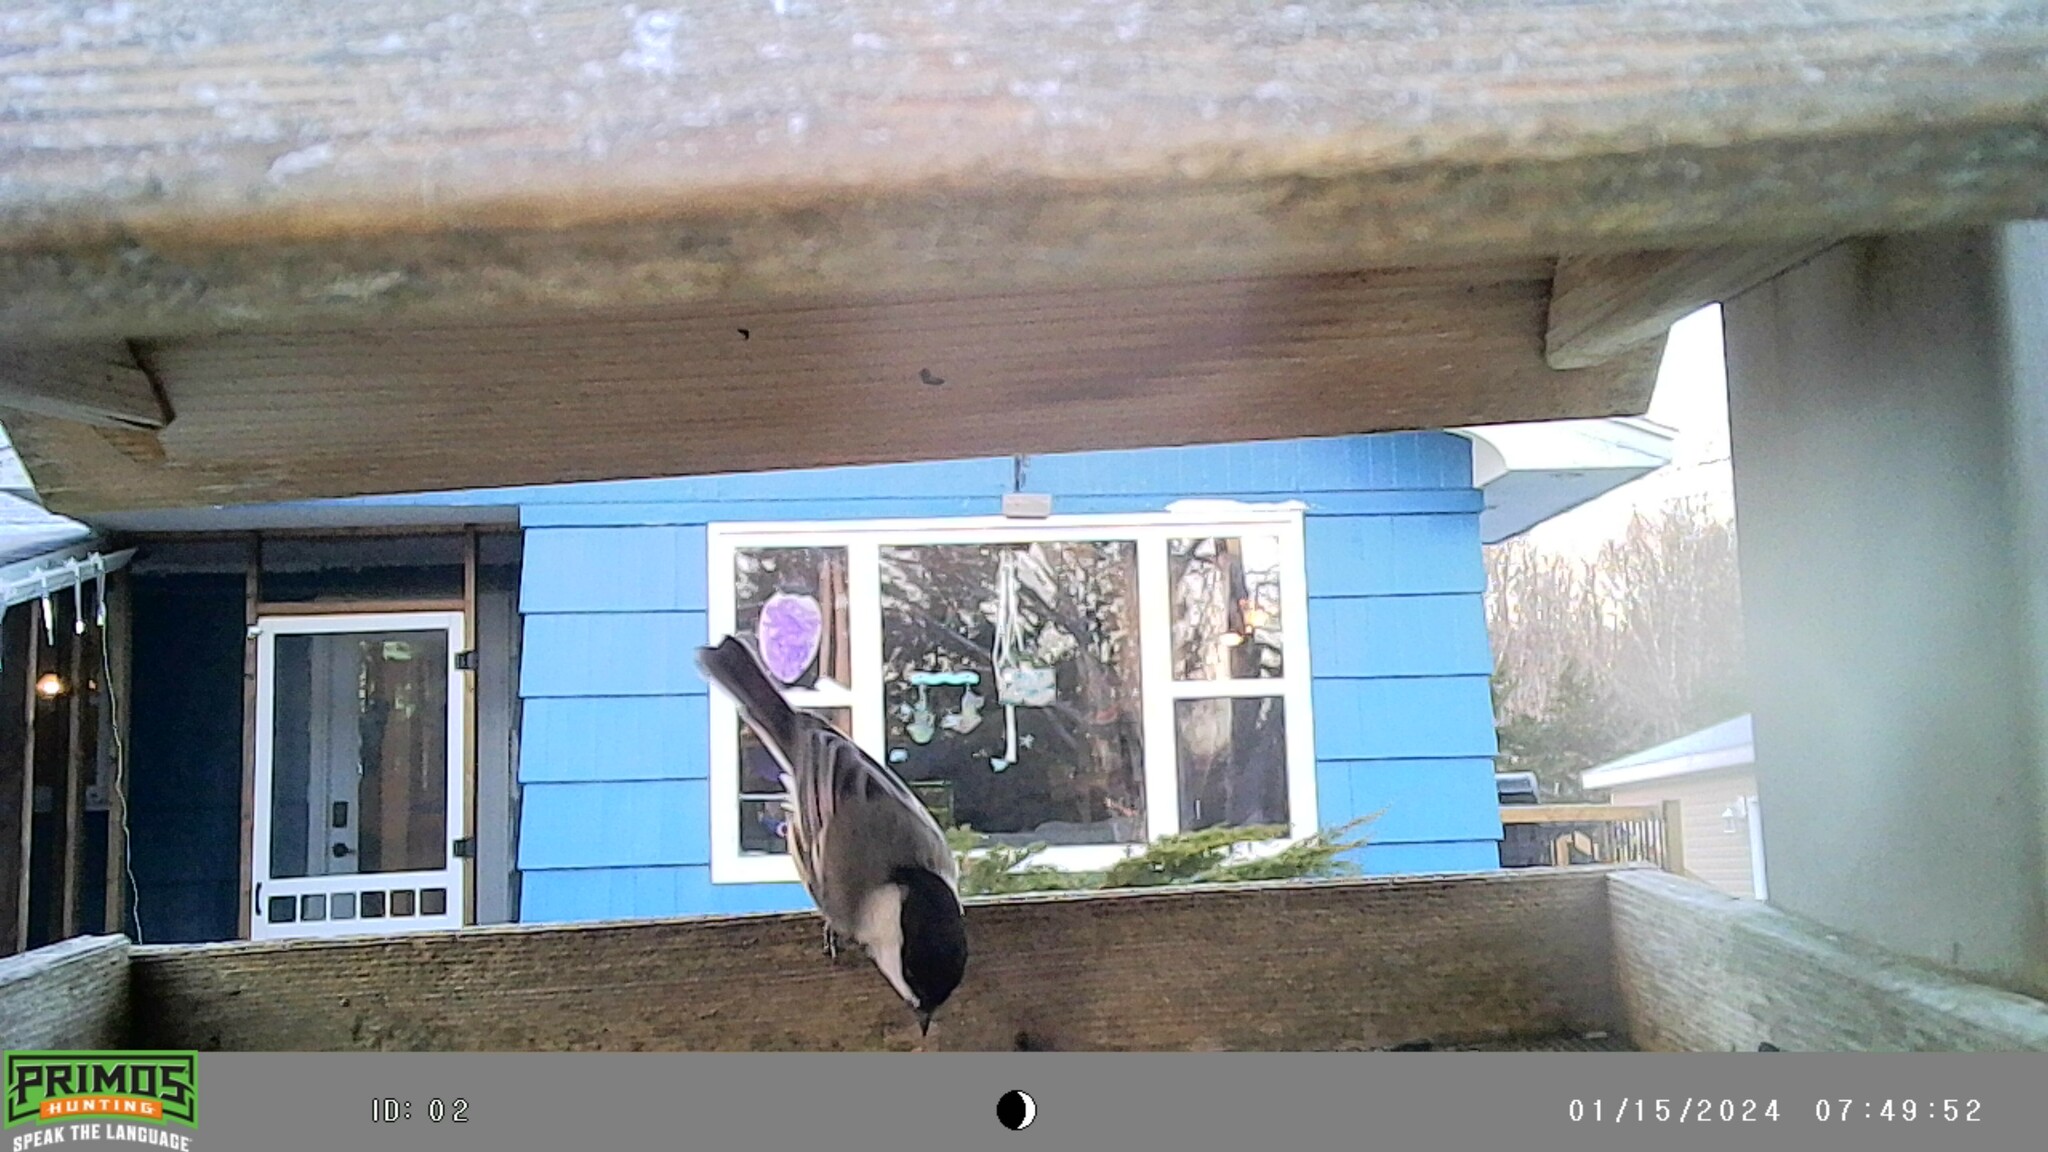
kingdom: Animalia
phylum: Chordata
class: Aves
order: Passeriformes
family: Paridae
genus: Poecile
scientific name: Poecile atricapillus
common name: Black-capped chickadee
